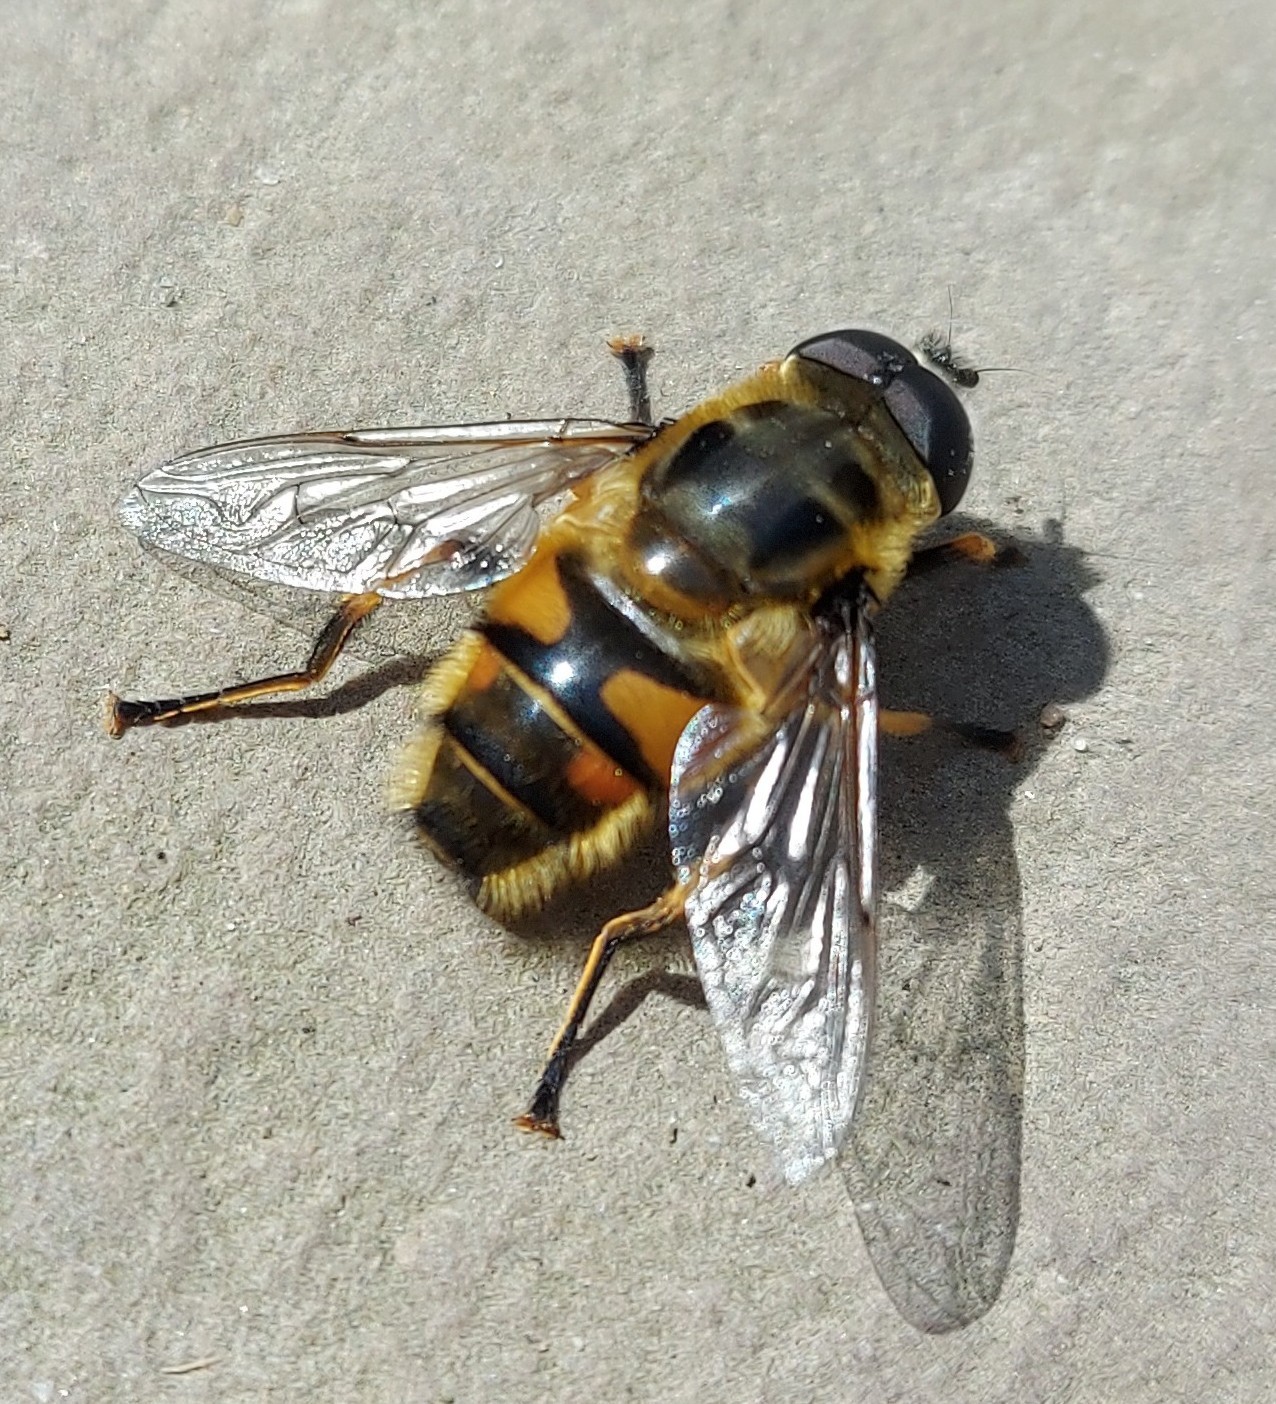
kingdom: Animalia
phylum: Arthropoda
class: Insecta
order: Diptera
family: Syrphidae
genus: Myathropa
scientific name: Myathropa florea
